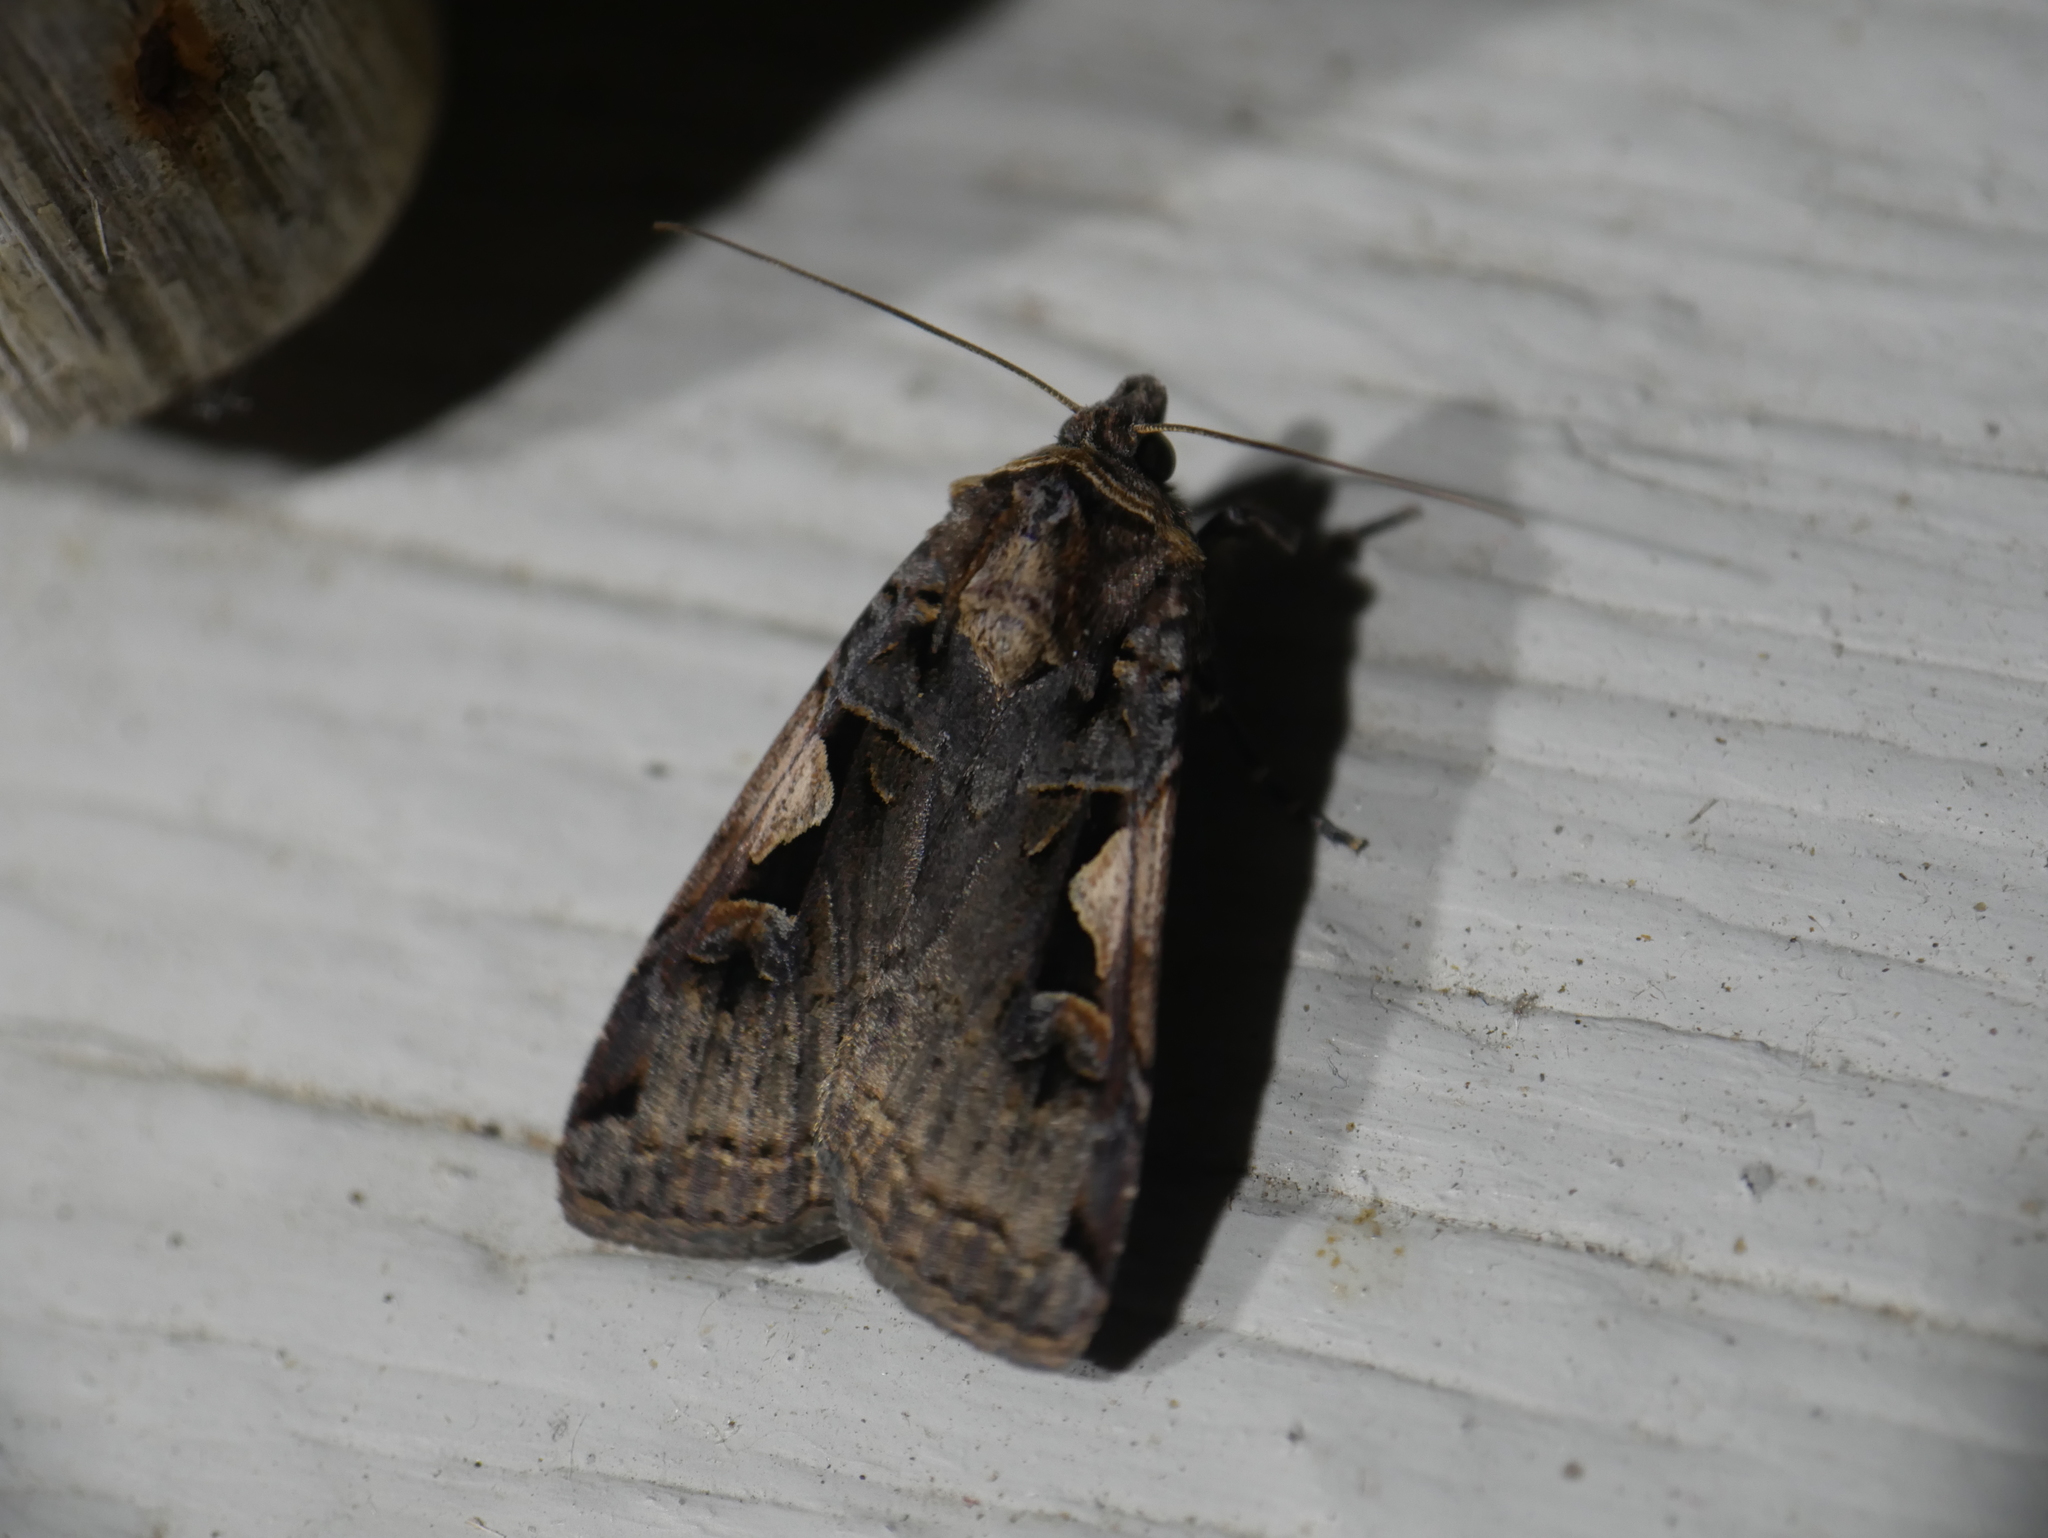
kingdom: Animalia
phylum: Arthropoda
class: Insecta
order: Lepidoptera
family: Noctuidae
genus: Xestia
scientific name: Xestia c-nigrum
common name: Setaceous hebrew character
